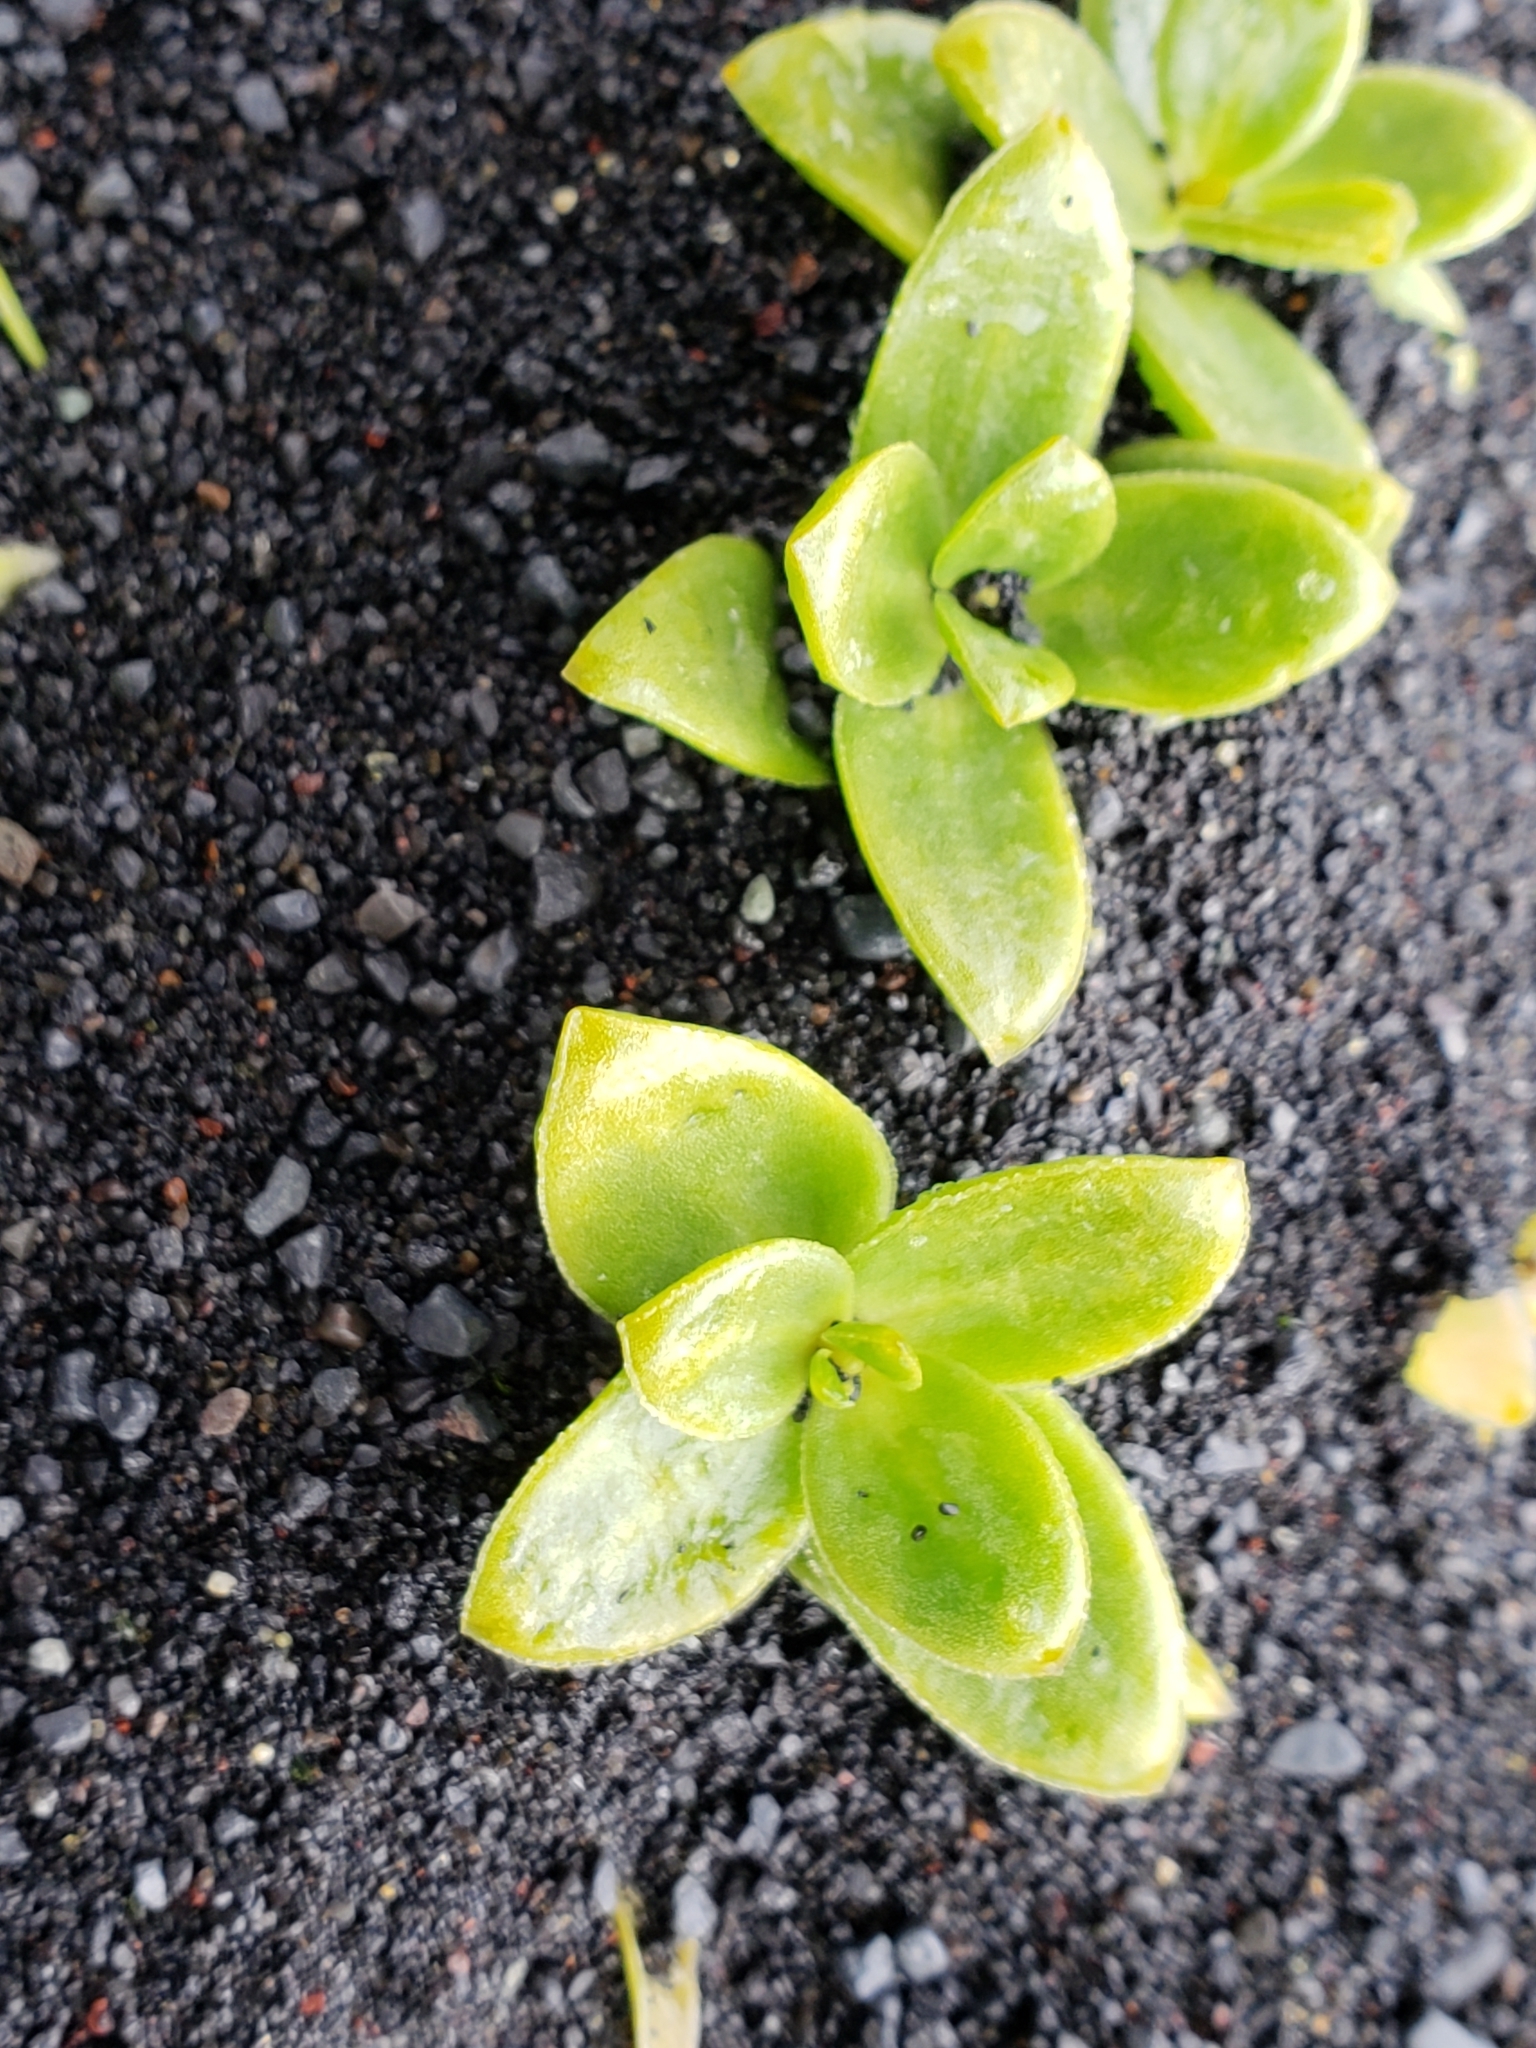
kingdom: Plantae
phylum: Tracheophyta
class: Magnoliopsida
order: Caryophyllales
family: Caryophyllaceae
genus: Honckenya
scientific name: Honckenya peploides
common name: Sea sandwort
